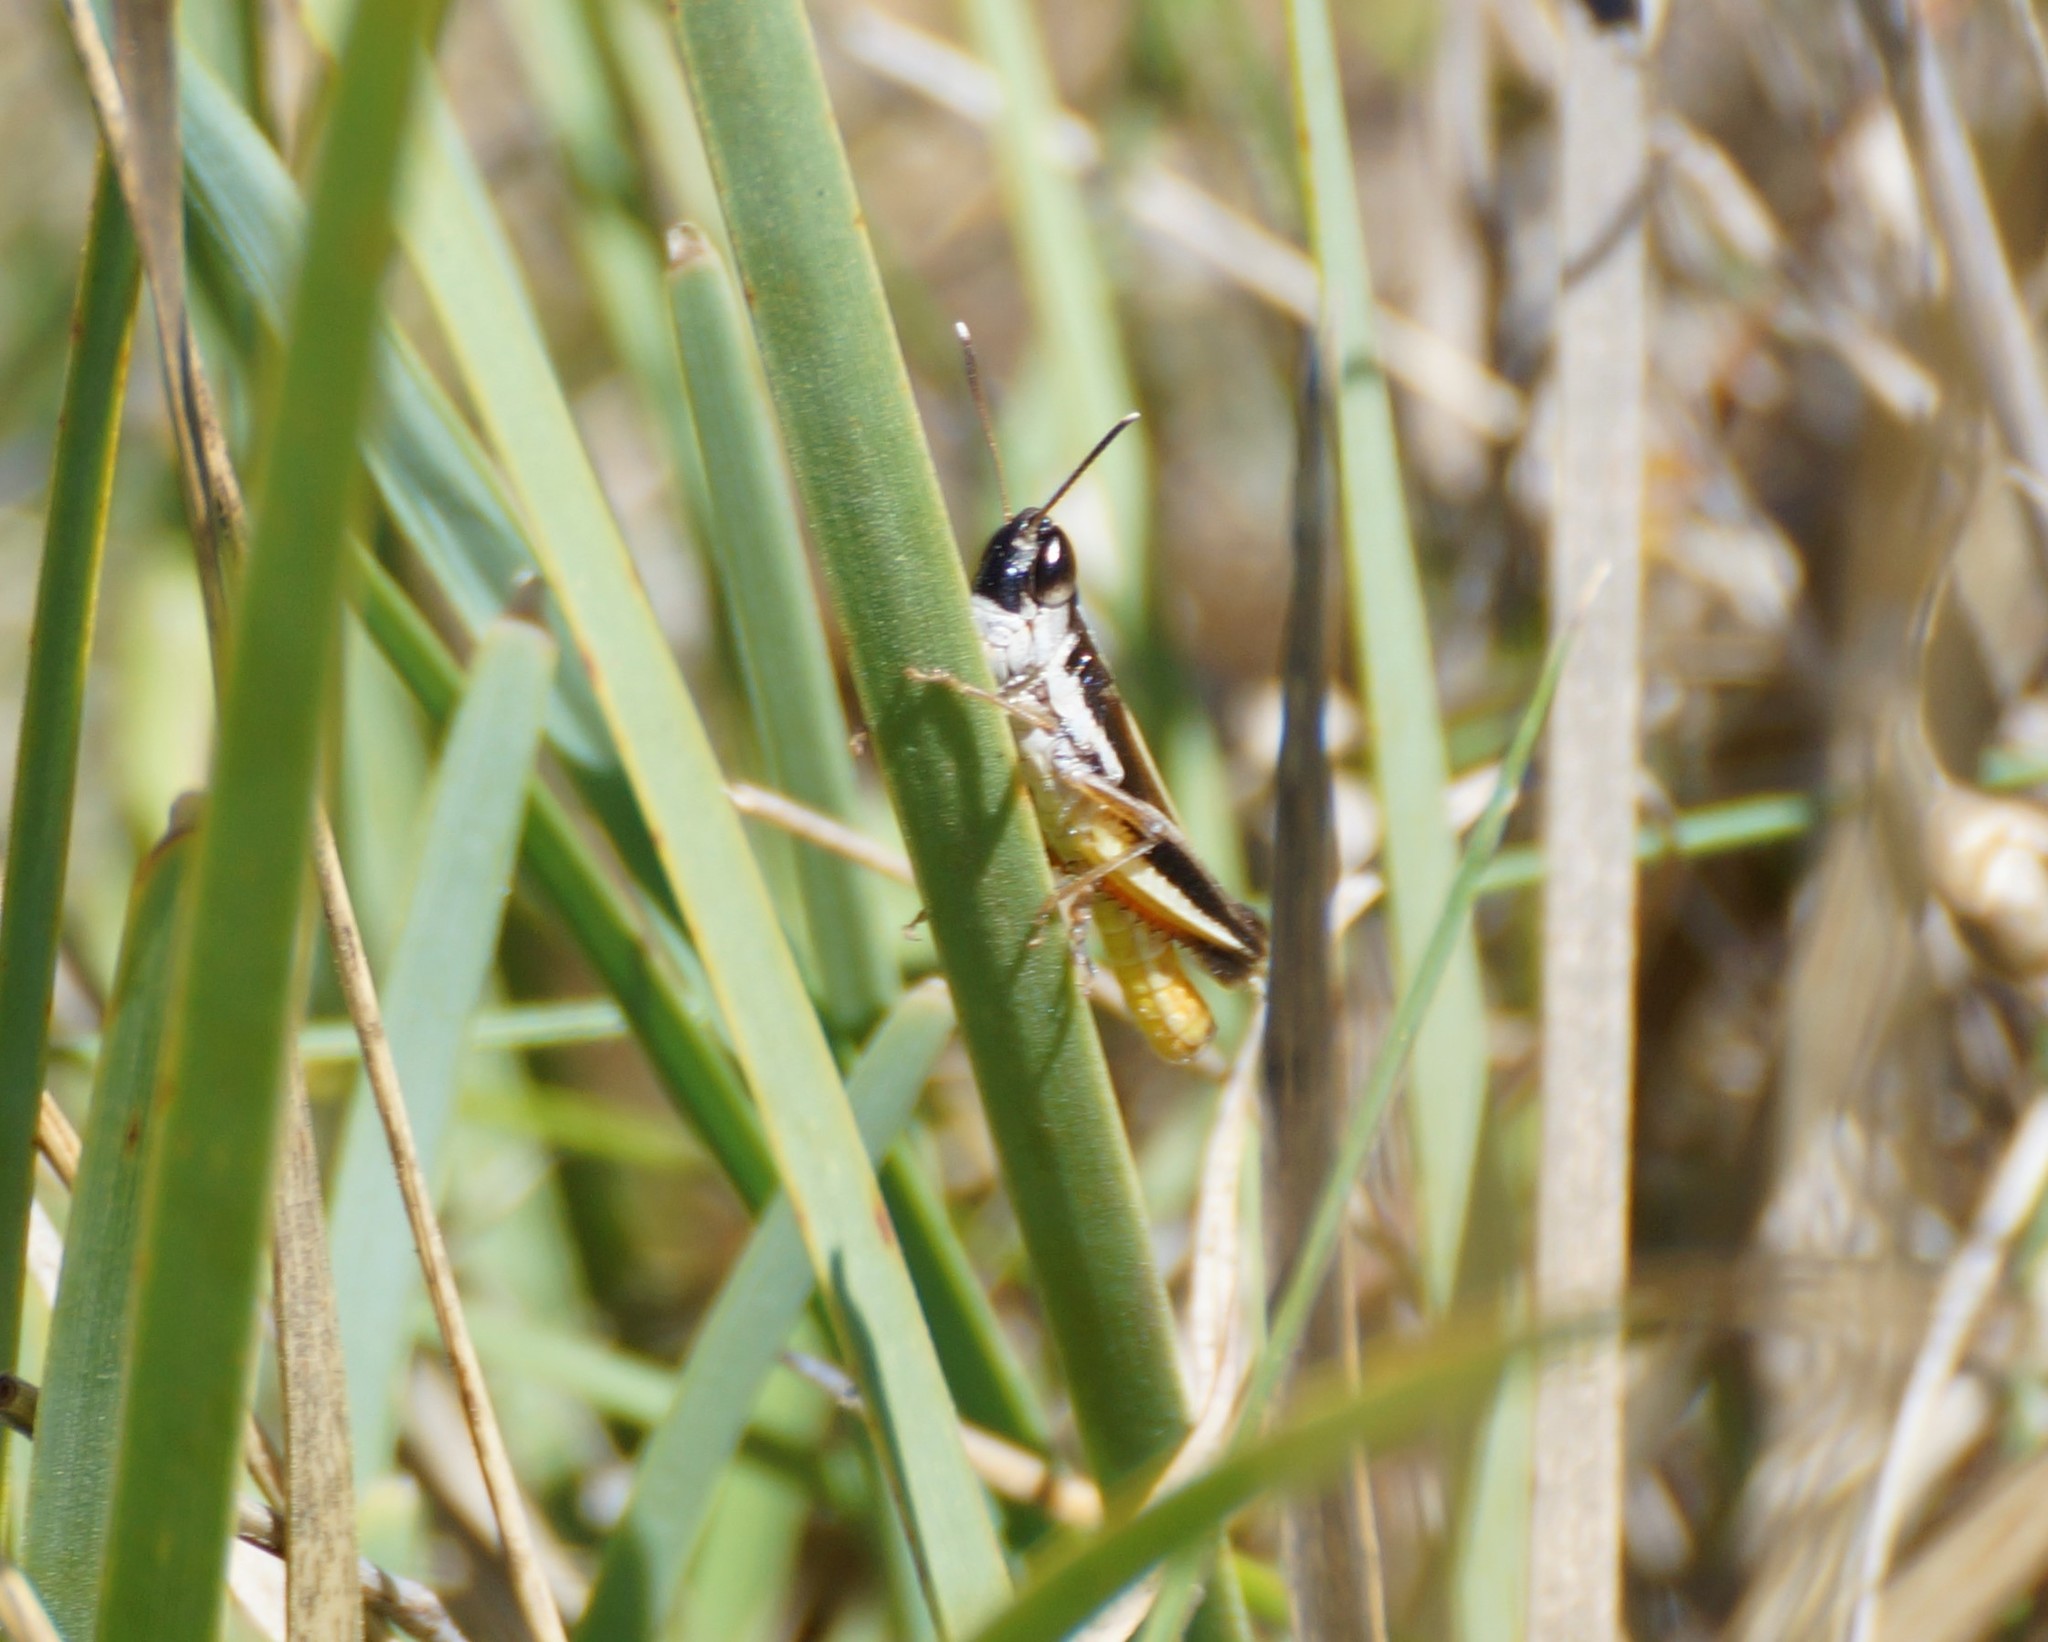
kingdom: Animalia
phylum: Arthropoda
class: Insecta
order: Orthoptera
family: Acrididae
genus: Macrotona
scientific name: Macrotona australis
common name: Common macrotona
